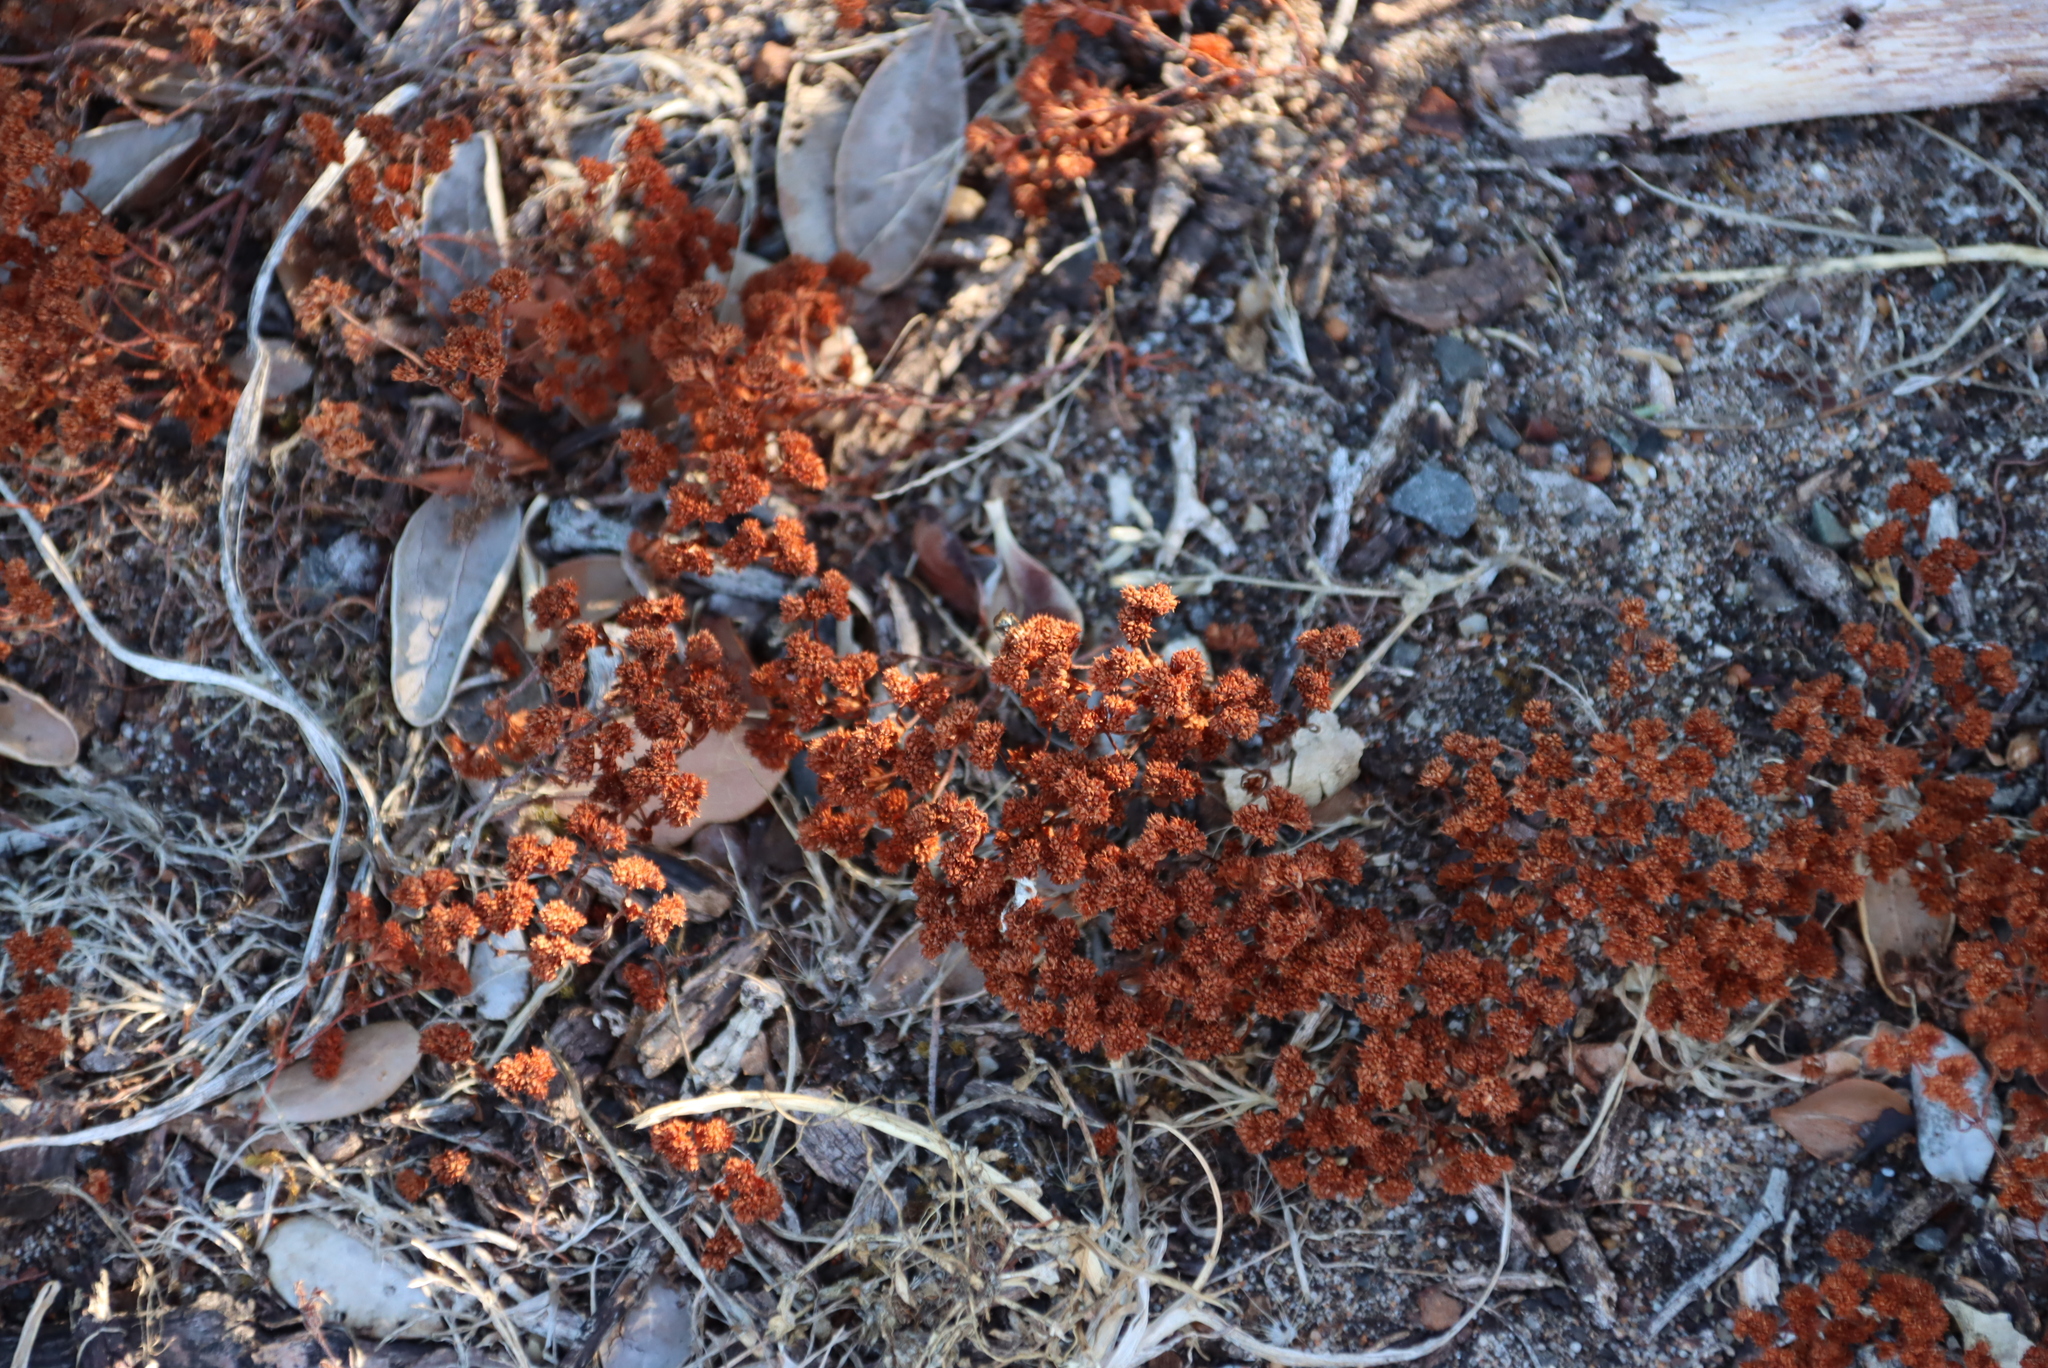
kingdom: Plantae
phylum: Tracheophyta
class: Magnoliopsida
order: Saxifragales
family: Crassulaceae
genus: Crassula
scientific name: Crassula glomerata
